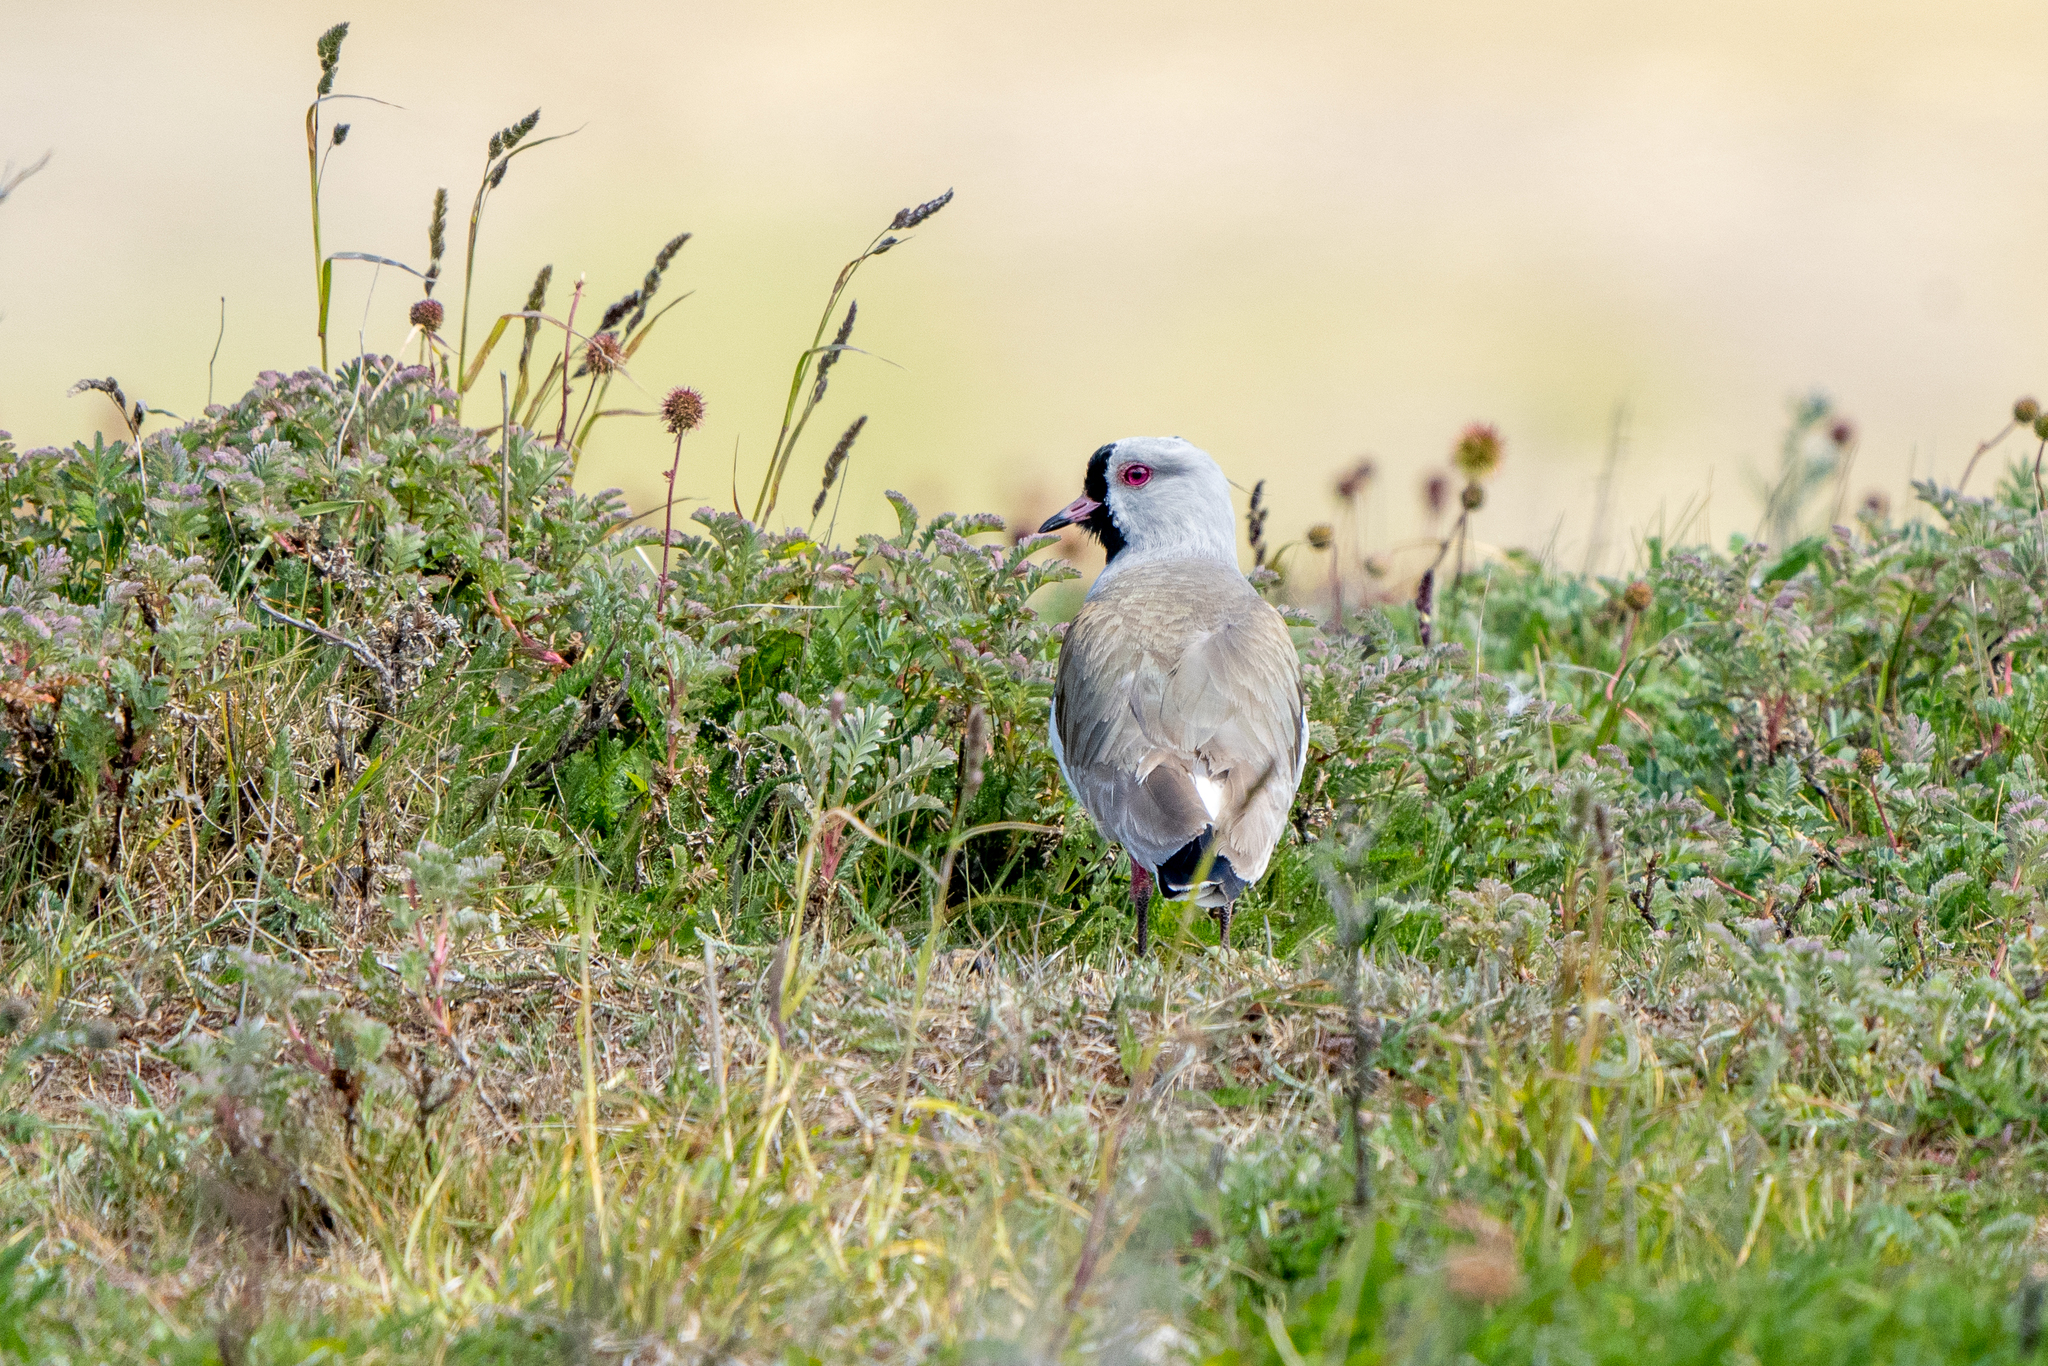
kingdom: Animalia
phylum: Chordata
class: Aves
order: Charadriiformes
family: Charadriidae
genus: Vanellus
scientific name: Vanellus chilensis
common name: Southern lapwing
